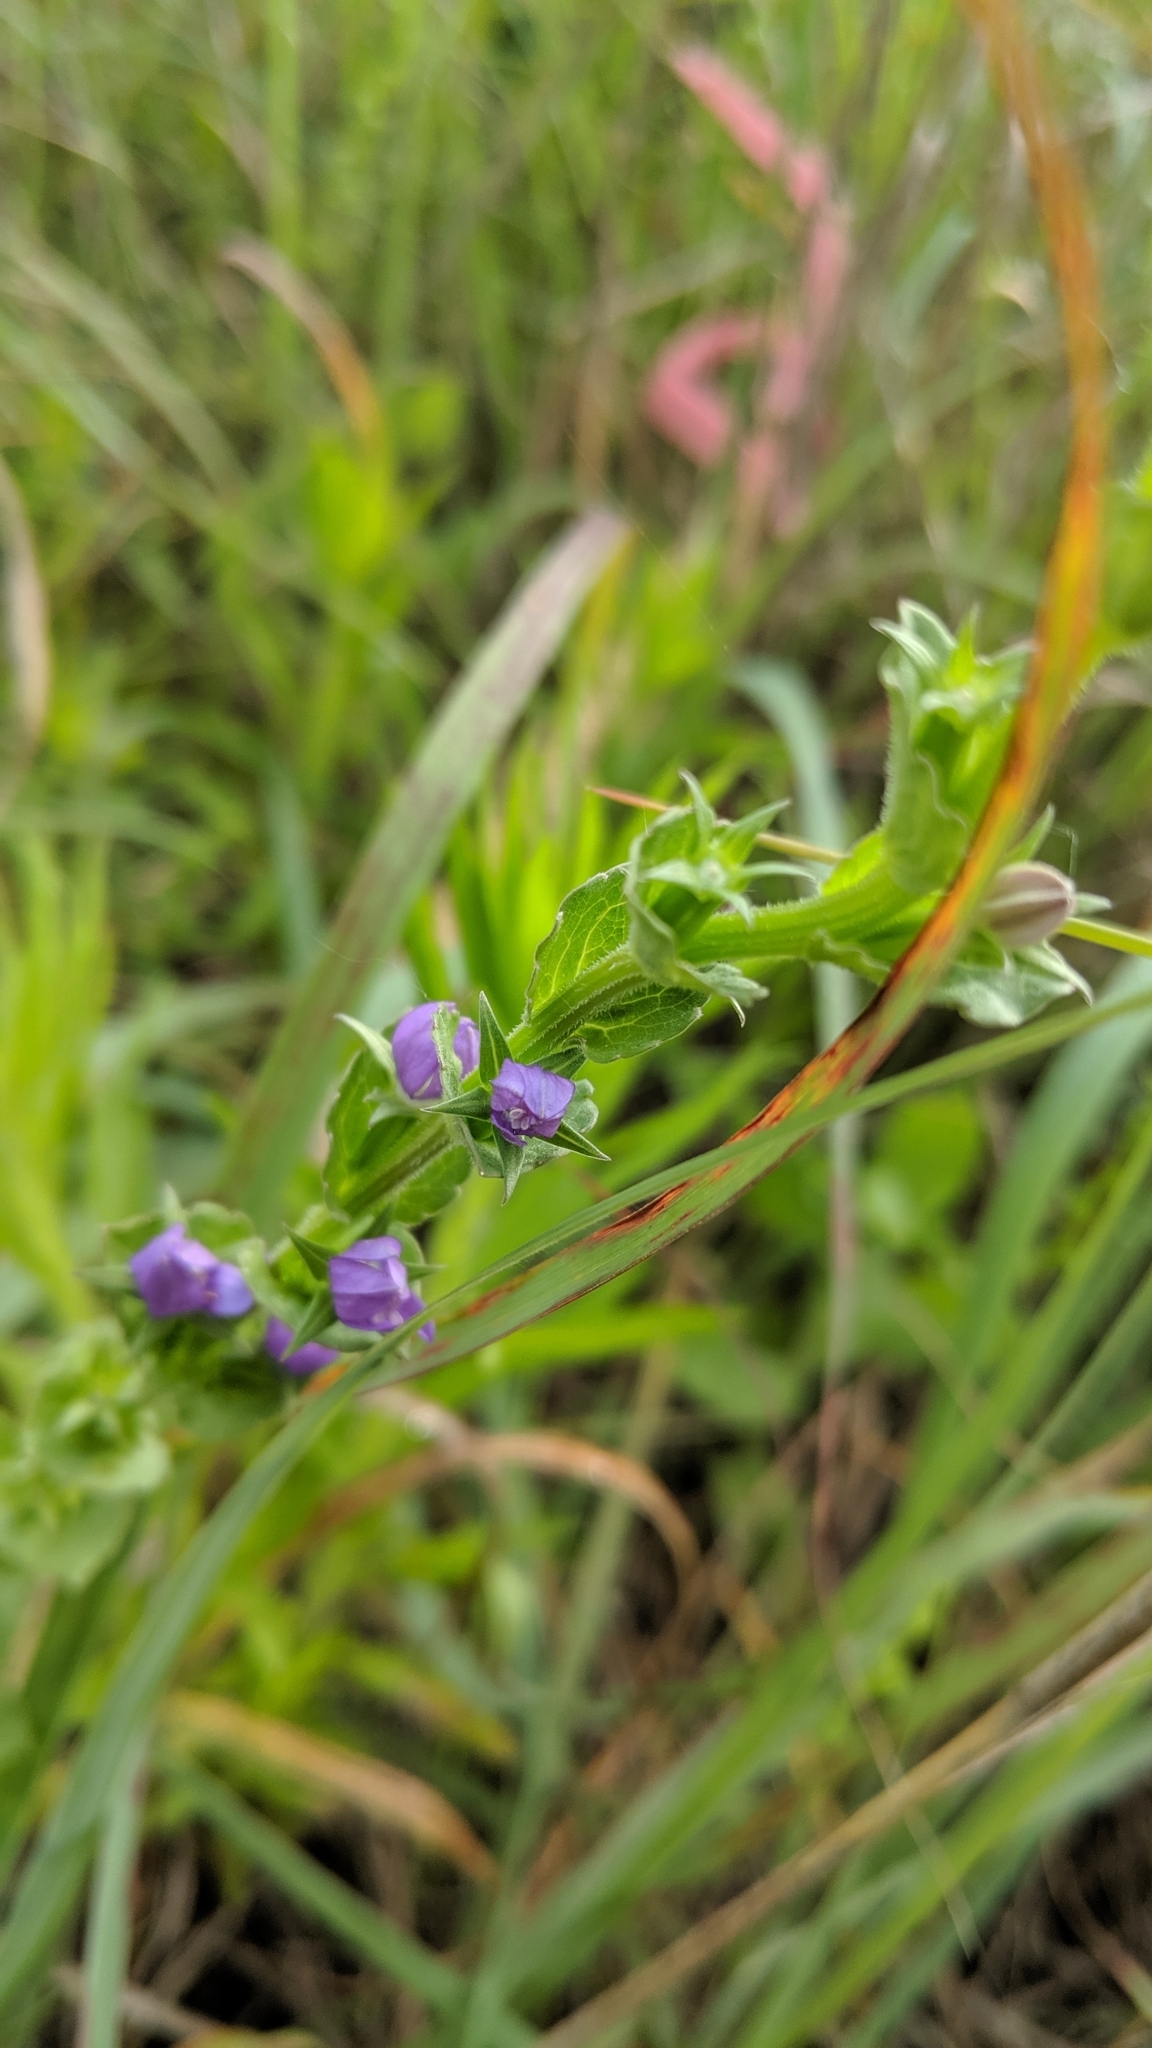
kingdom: Plantae
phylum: Tracheophyta
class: Magnoliopsida
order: Asterales
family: Campanulaceae
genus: Triodanis
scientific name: Triodanis perfoliata
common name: Clasping venus' looking-glass
